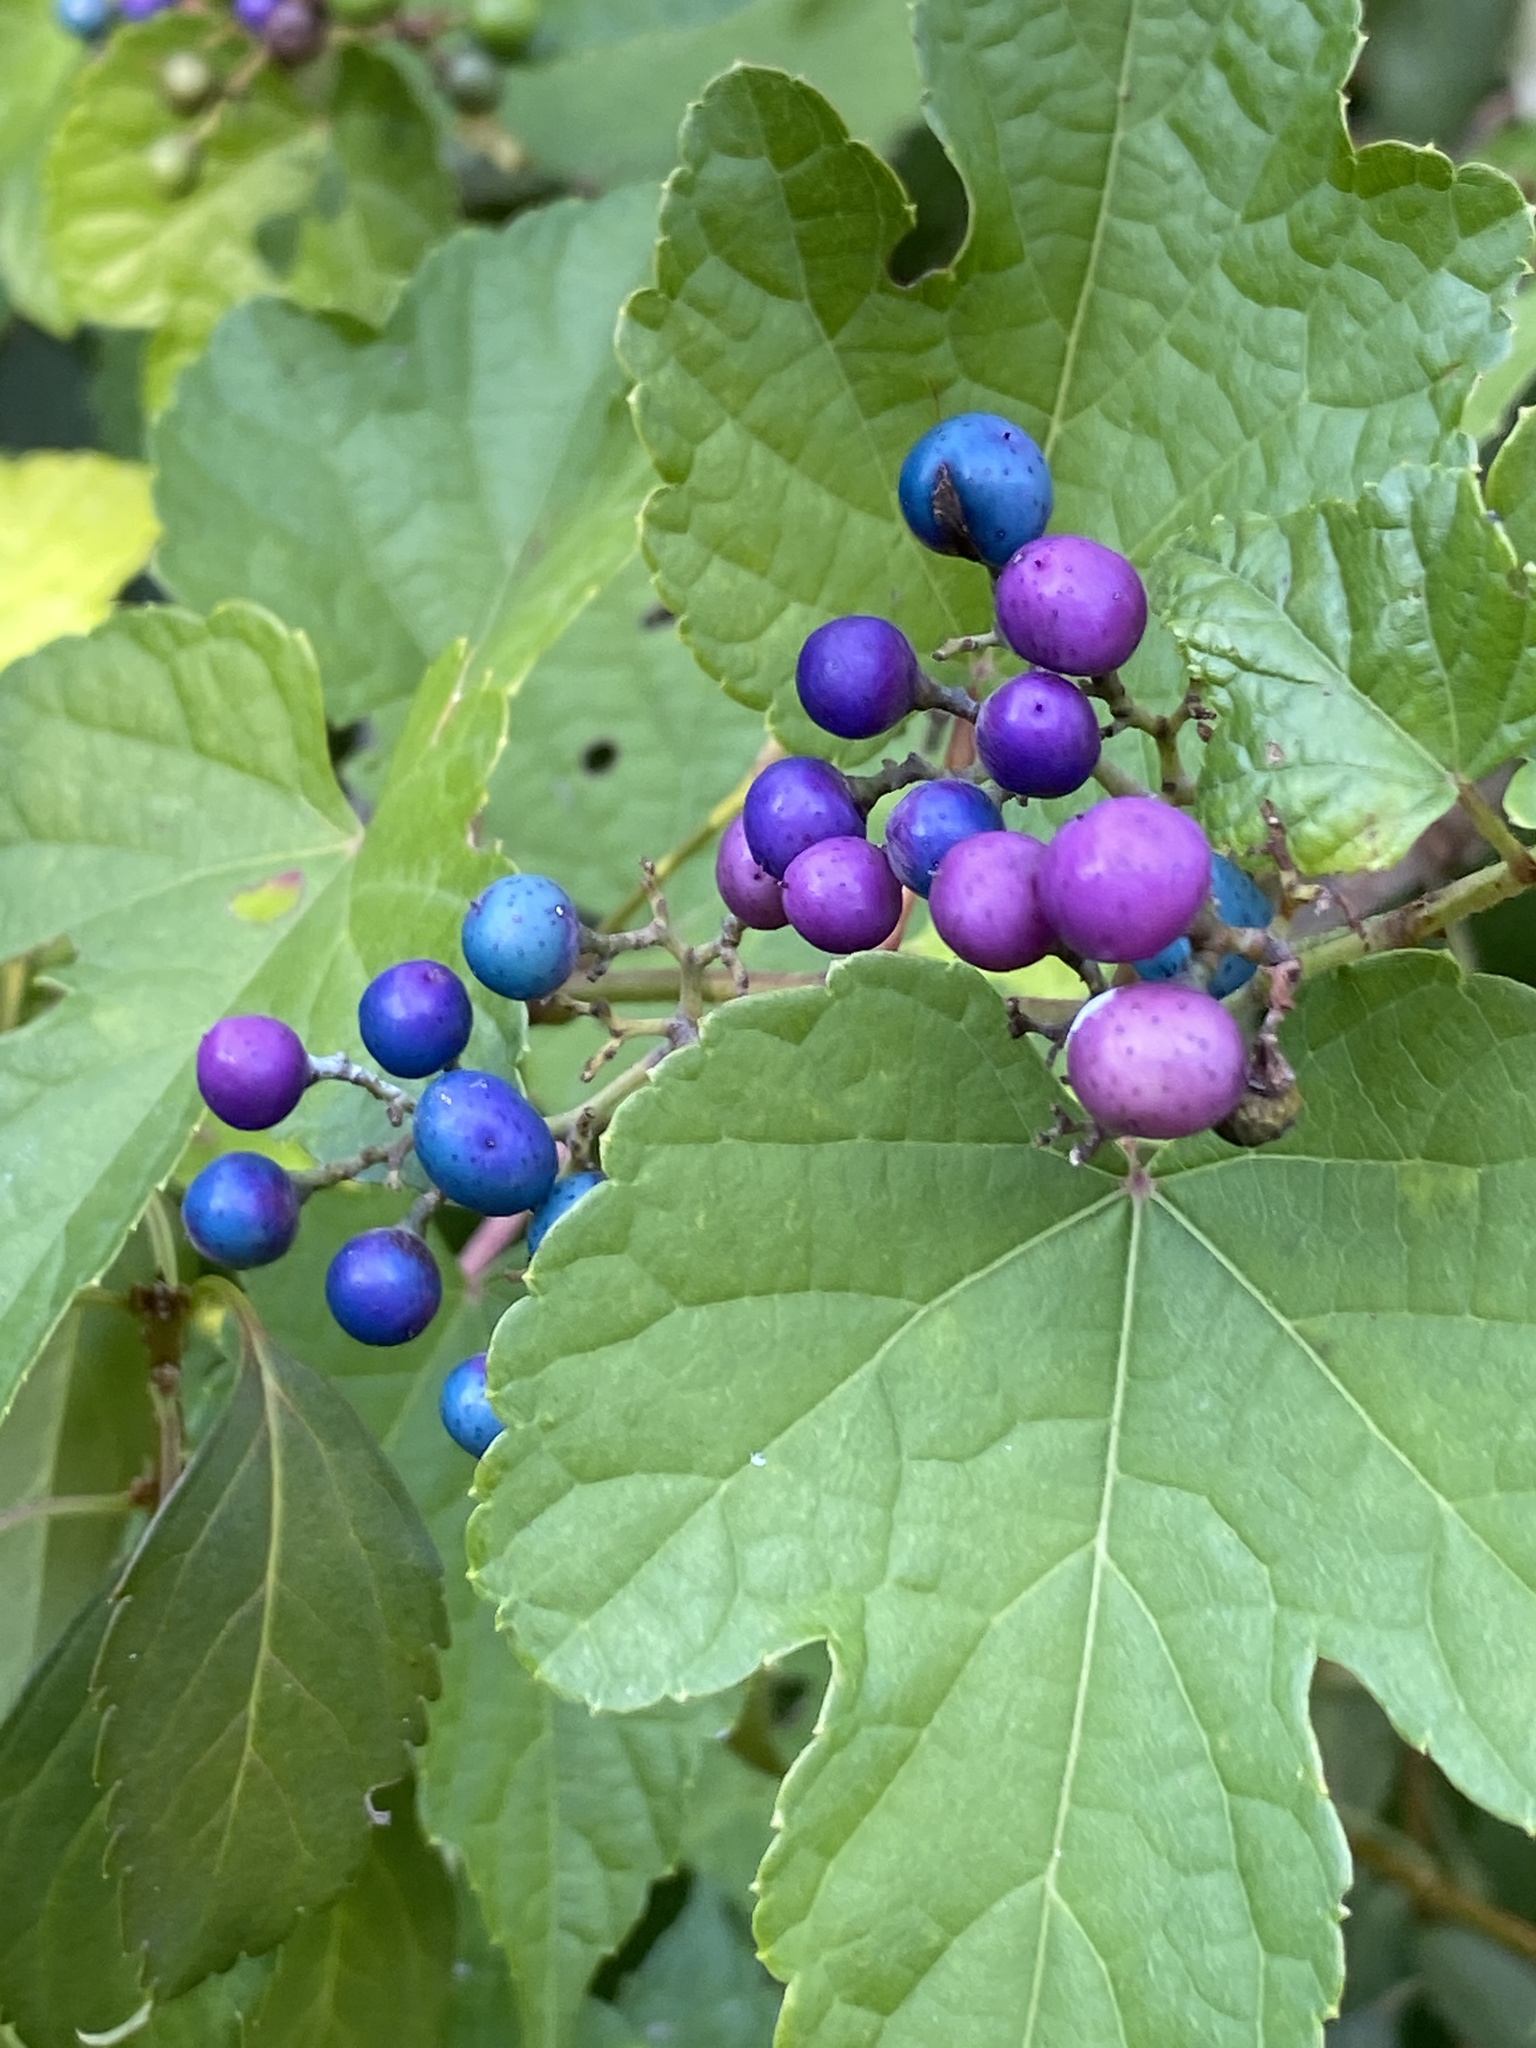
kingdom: Plantae
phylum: Tracheophyta
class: Magnoliopsida
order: Vitales
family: Vitaceae
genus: Ampelopsis
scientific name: Ampelopsis glandulosa
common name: Amur peppervine
